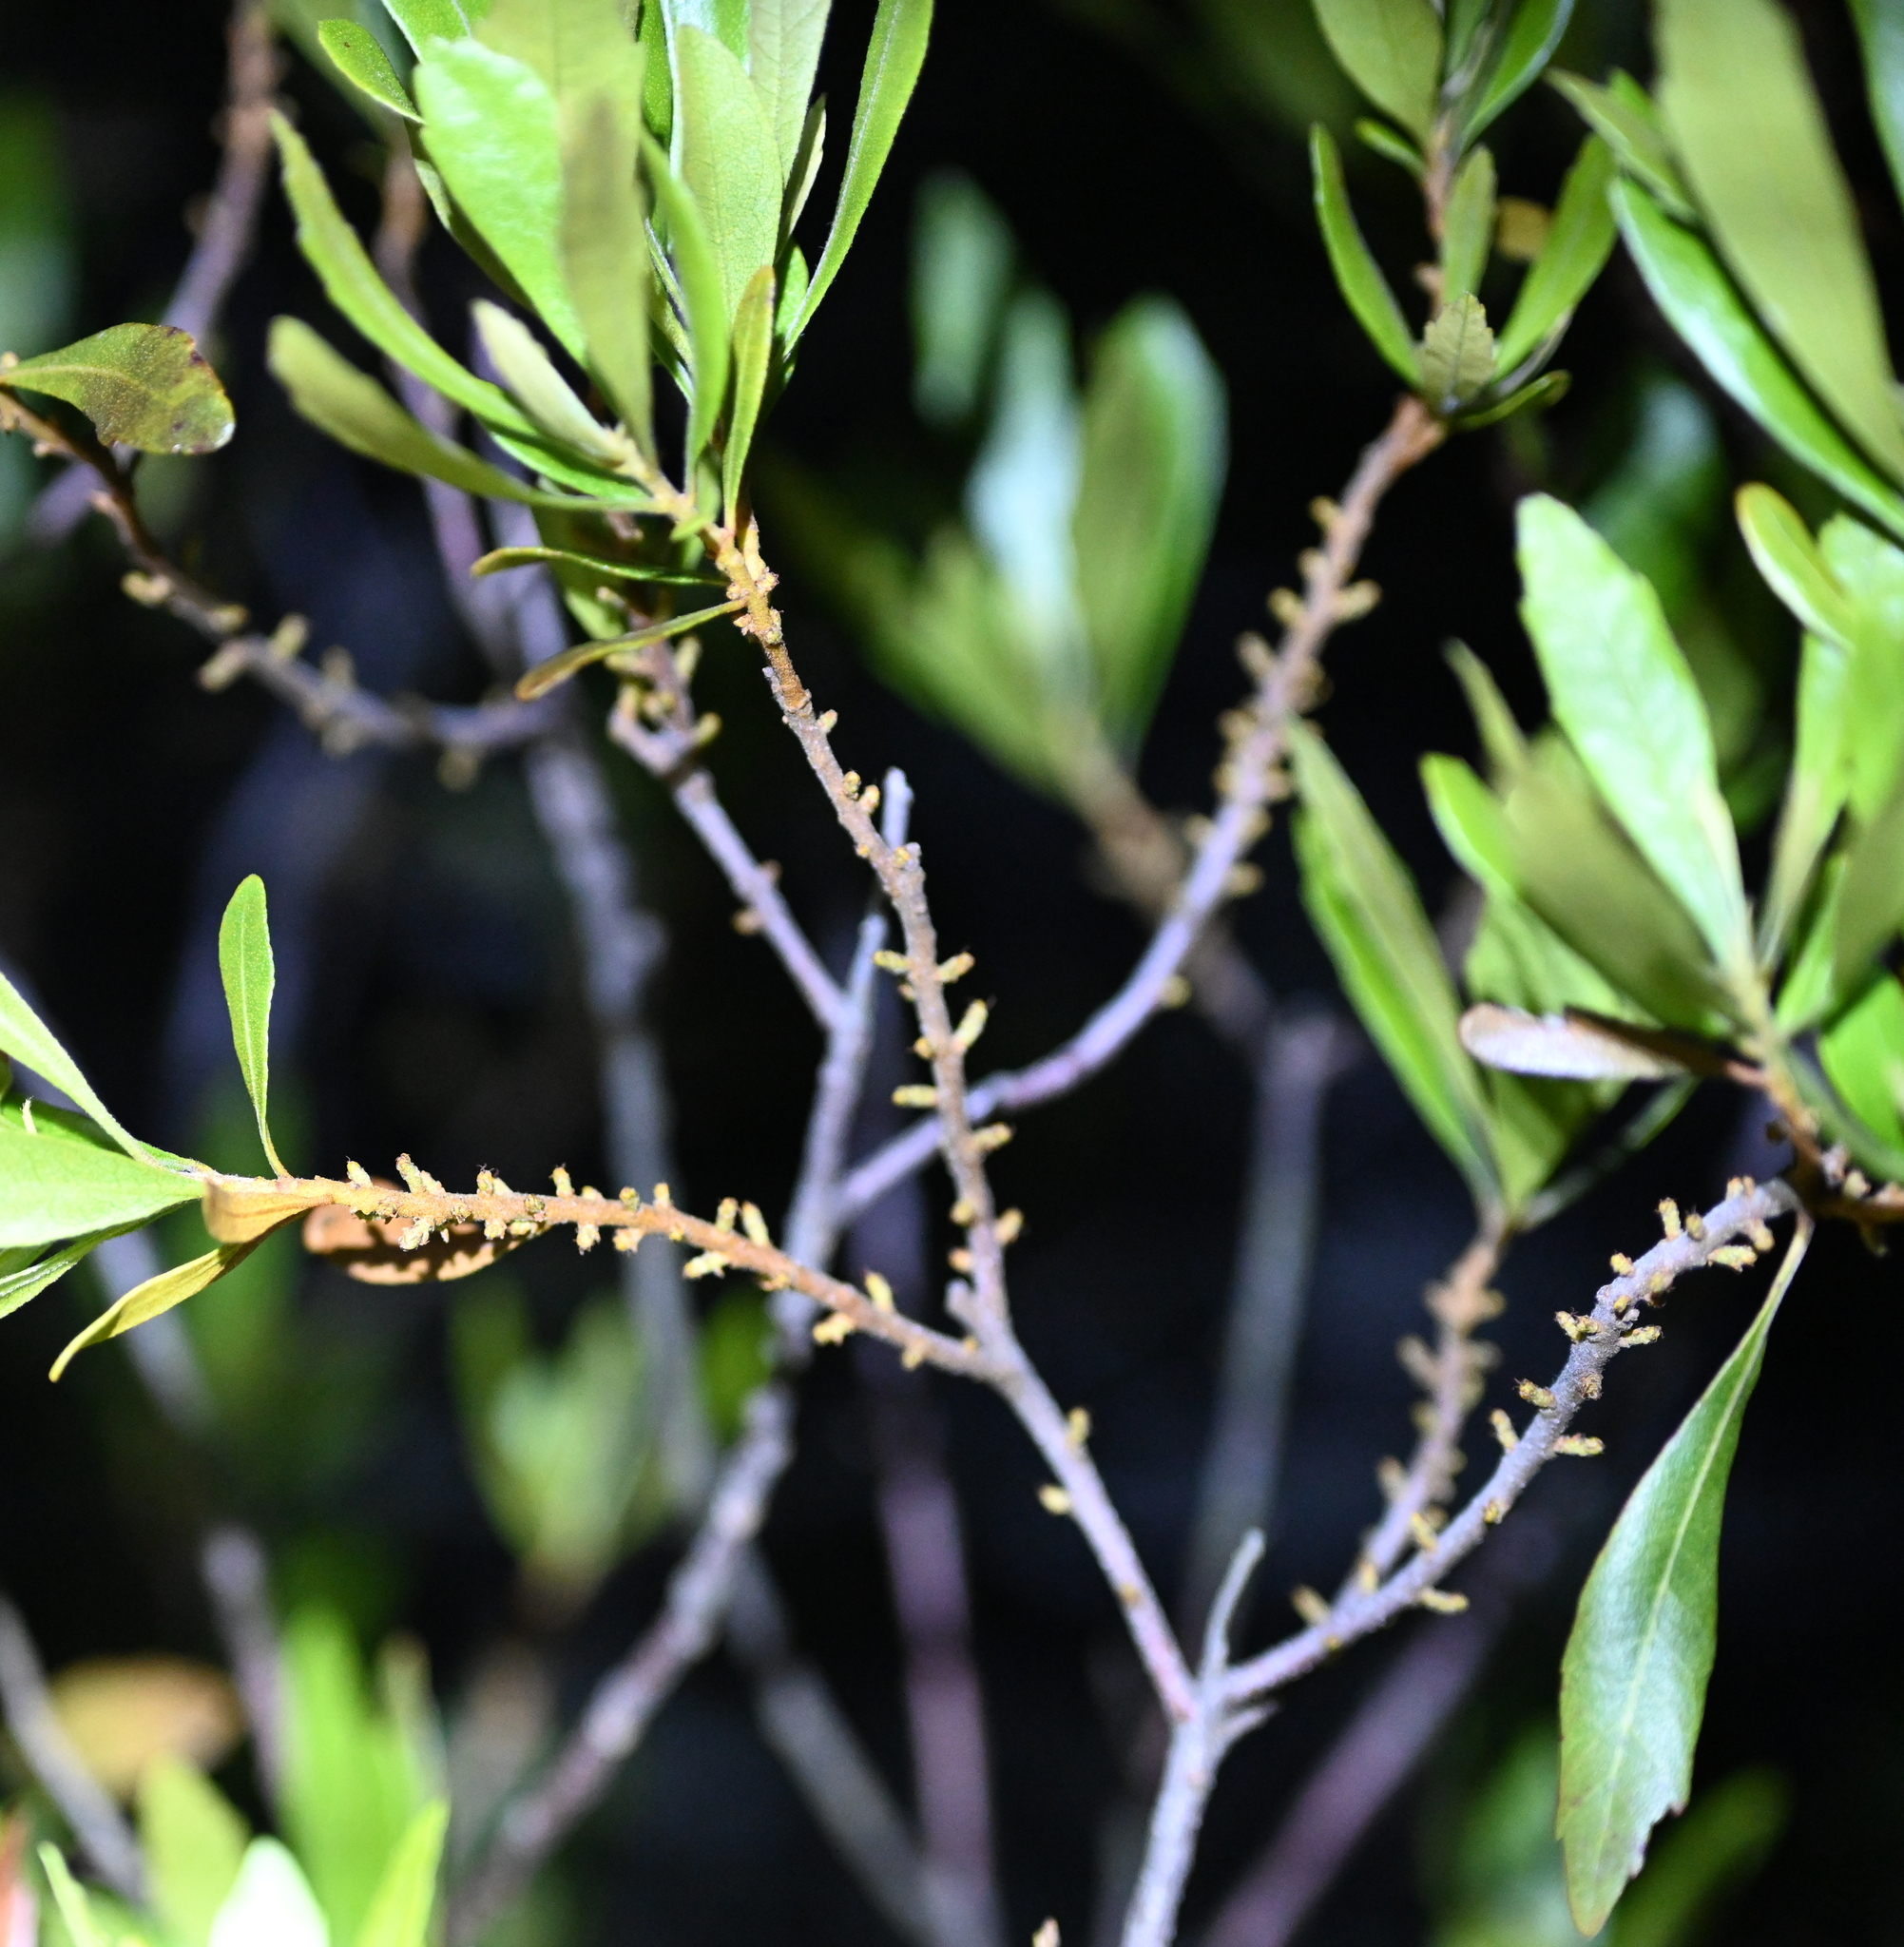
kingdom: Plantae
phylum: Tracheophyta
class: Magnoliopsida
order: Fagales
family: Myricaceae
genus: Morella
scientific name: Morella cerifera
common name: Wax myrtle
